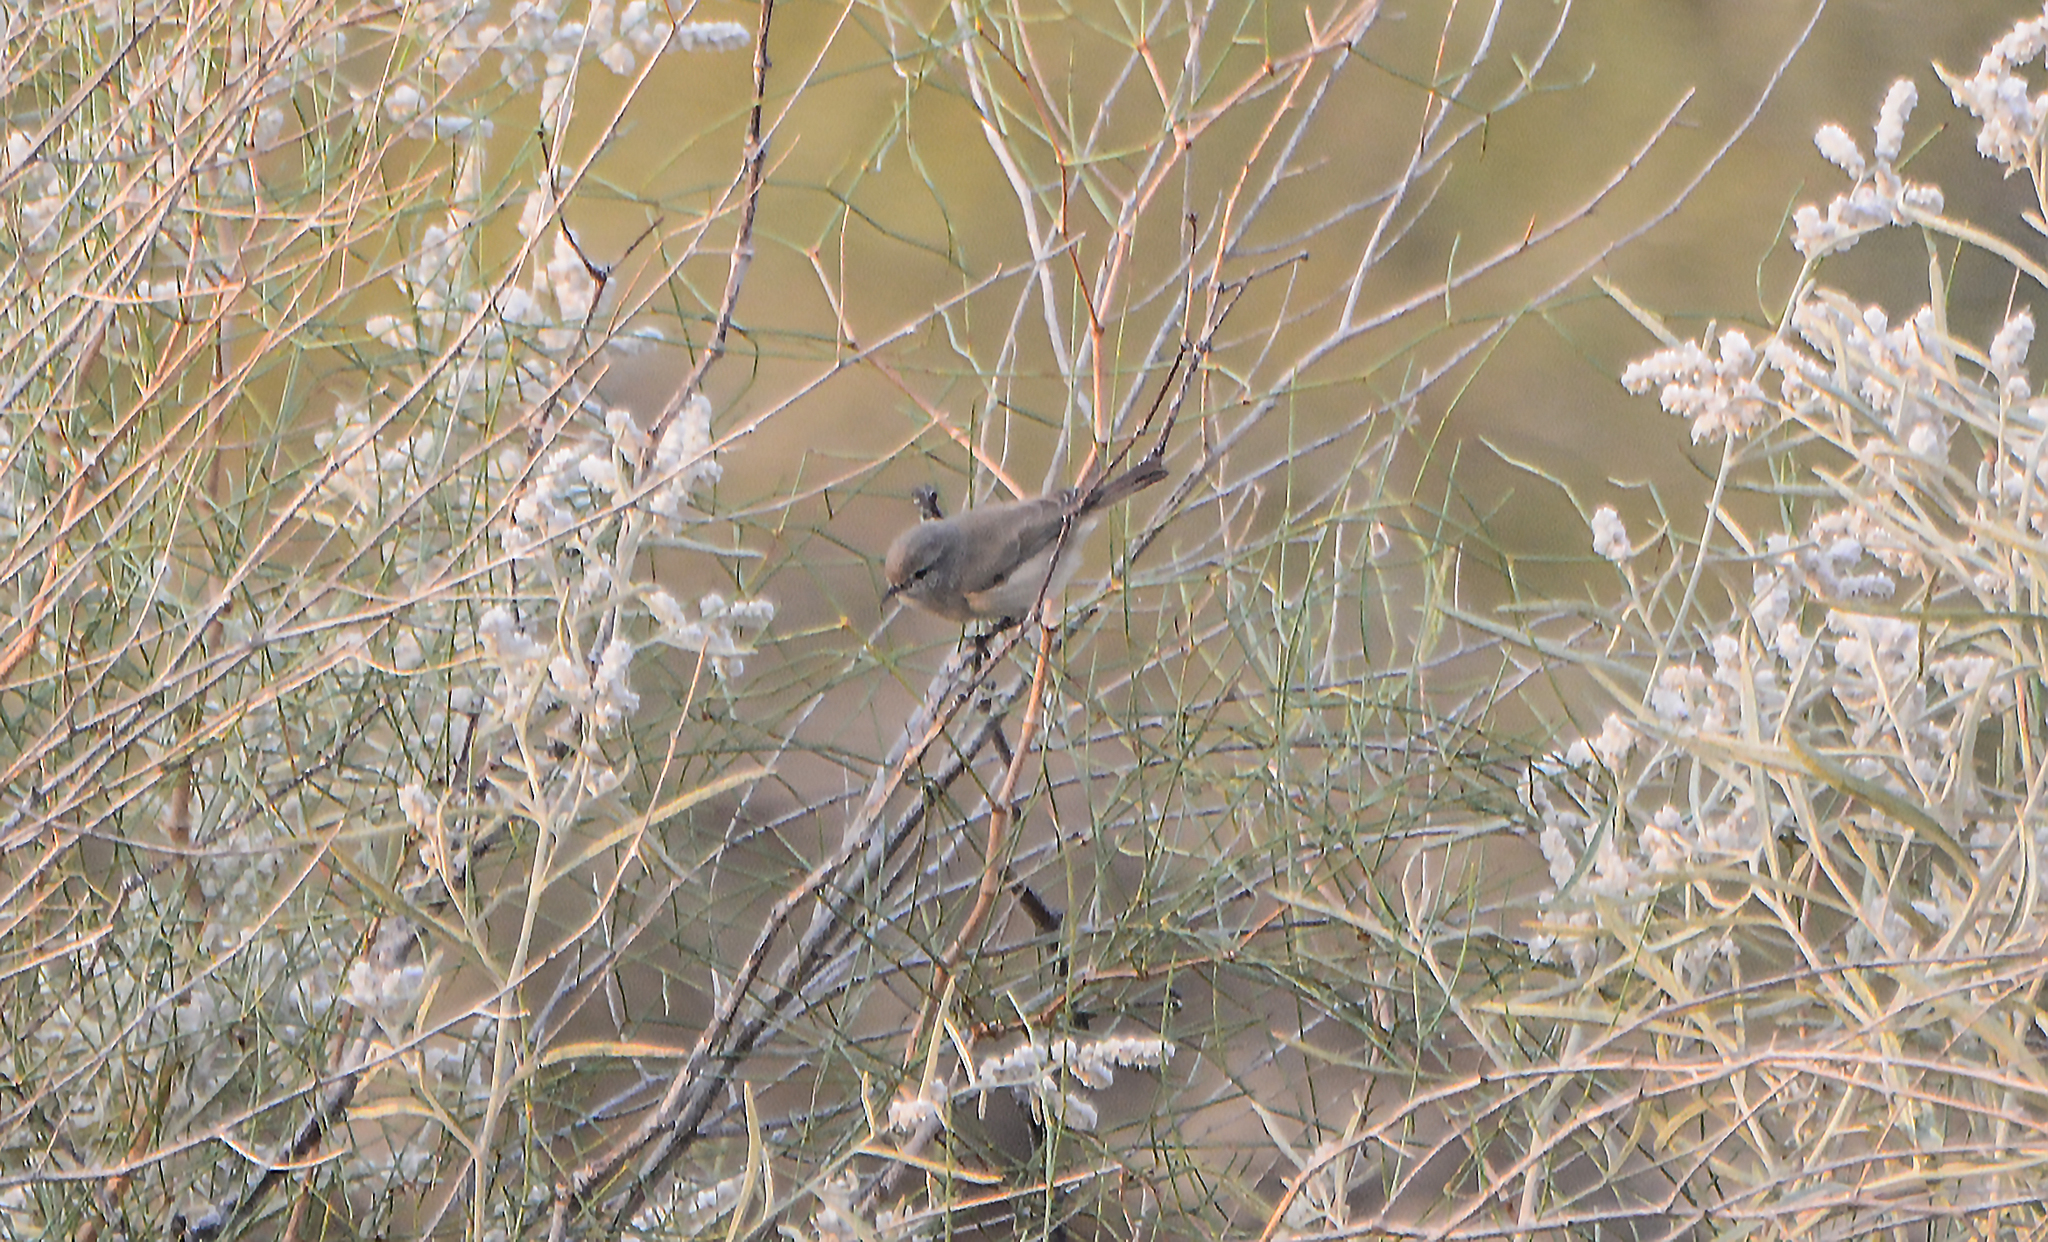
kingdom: Animalia
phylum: Chordata
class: Aves
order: Passeriformes
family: Phylloscopidae
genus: Phylloscopus
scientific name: Phylloscopus neglectus
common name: Plain leaf warbler
